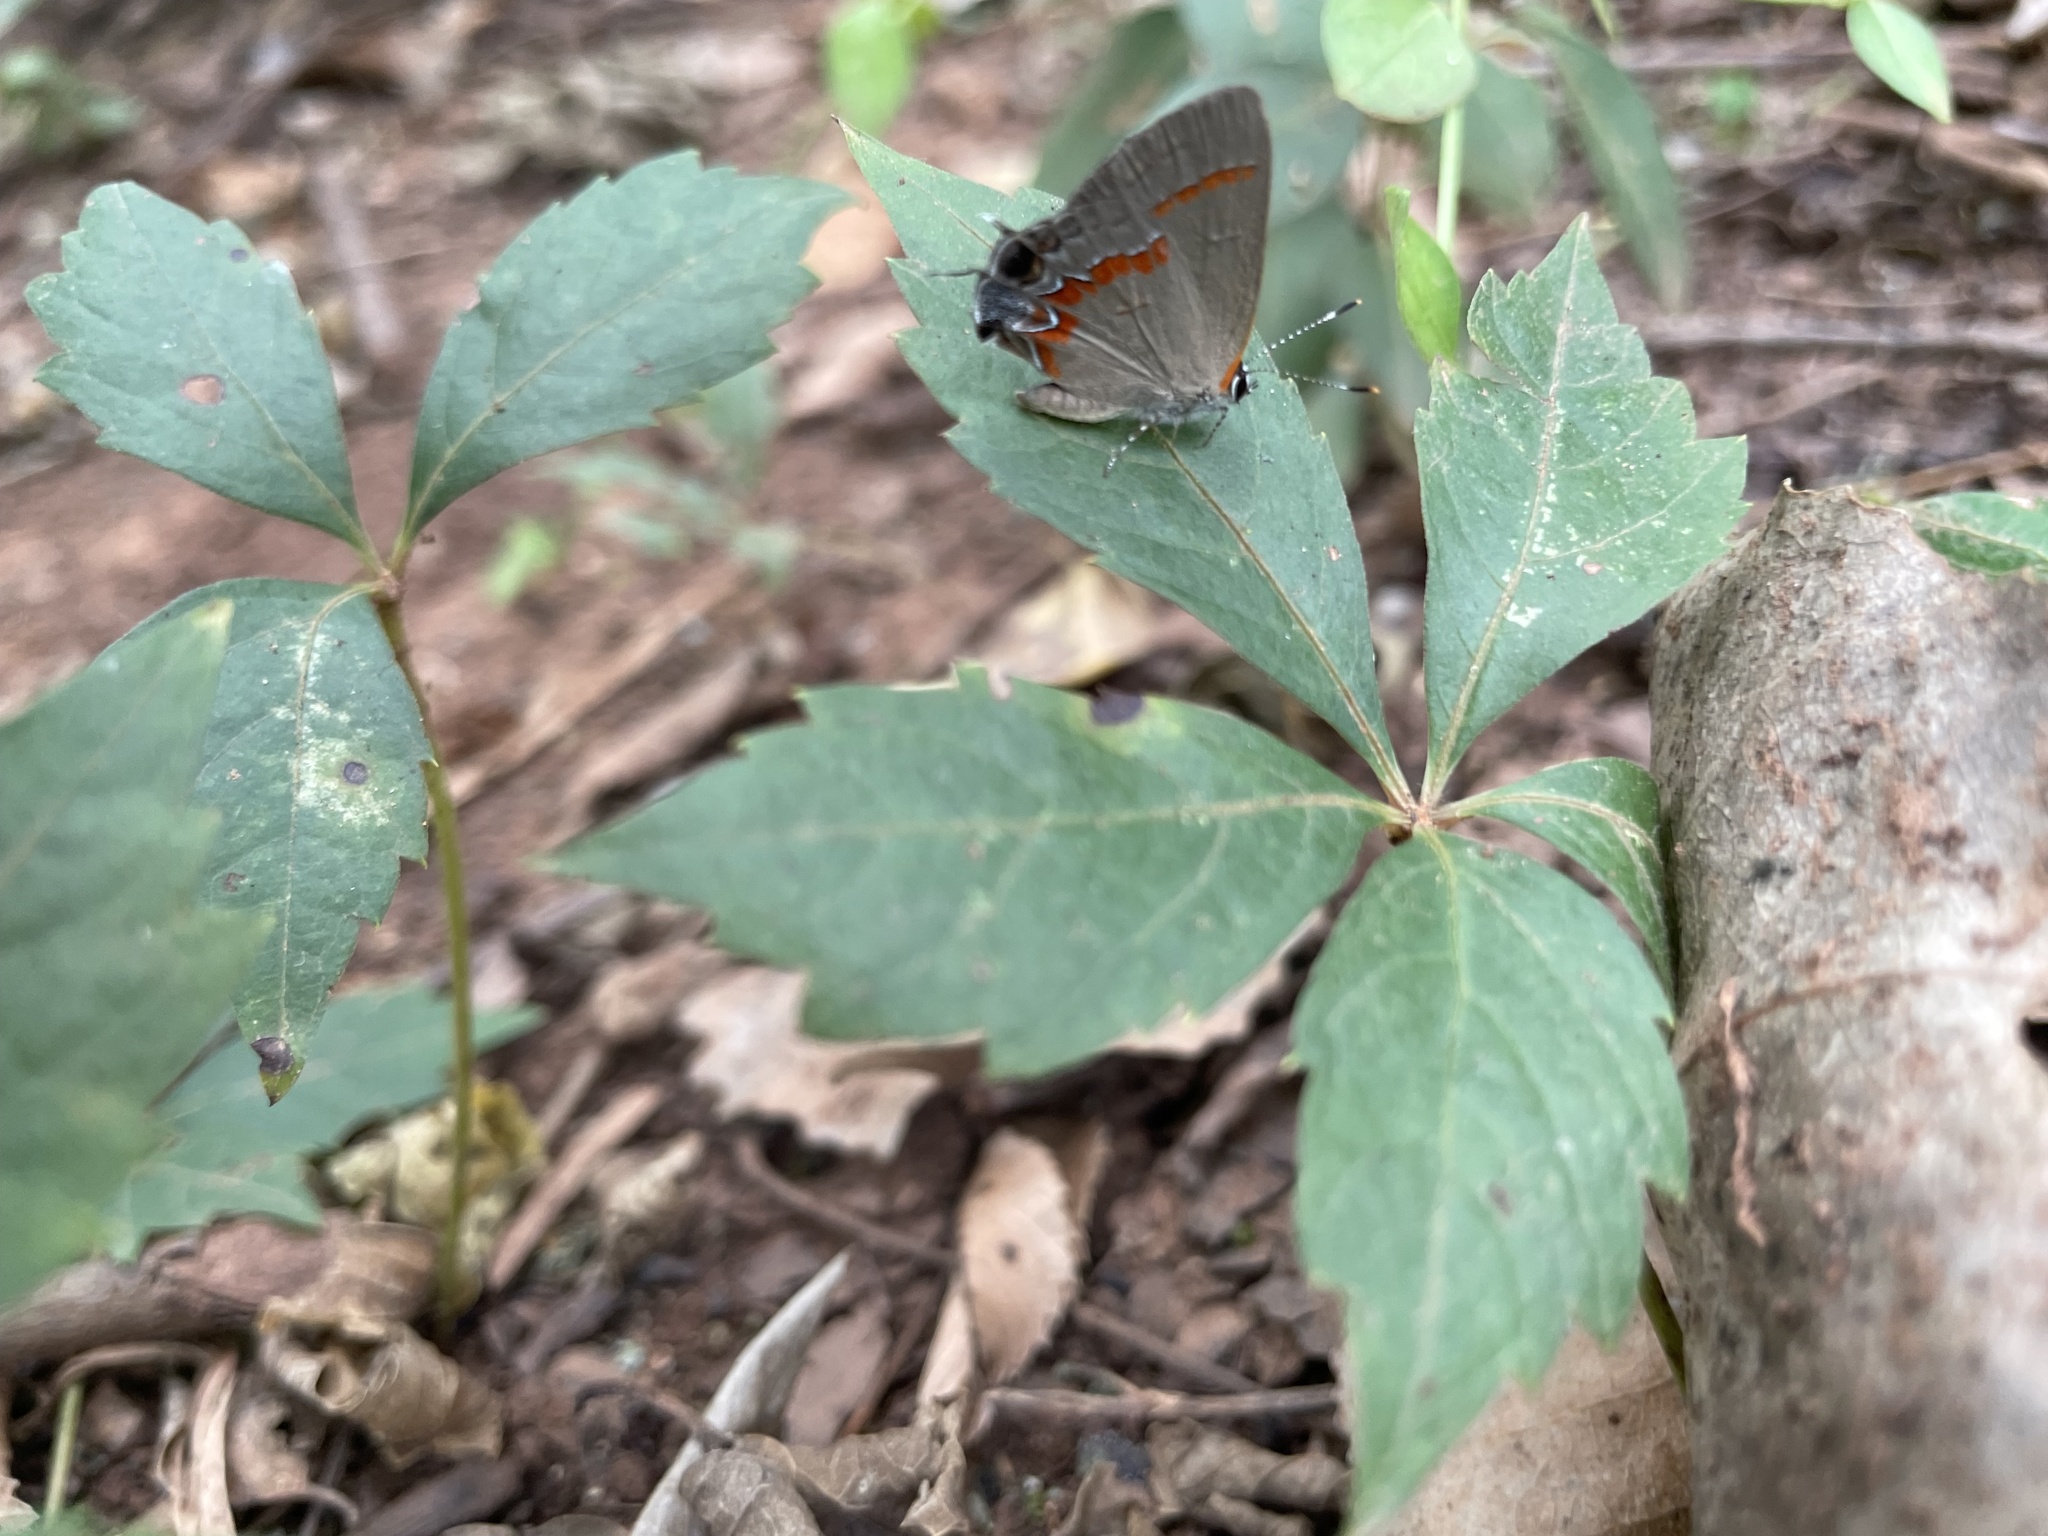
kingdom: Animalia
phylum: Arthropoda
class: Insecta
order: Lepidoptera
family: Lycaenidae
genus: Calycopis
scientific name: Calycopis cecrops
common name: Red-banded hairstreak
